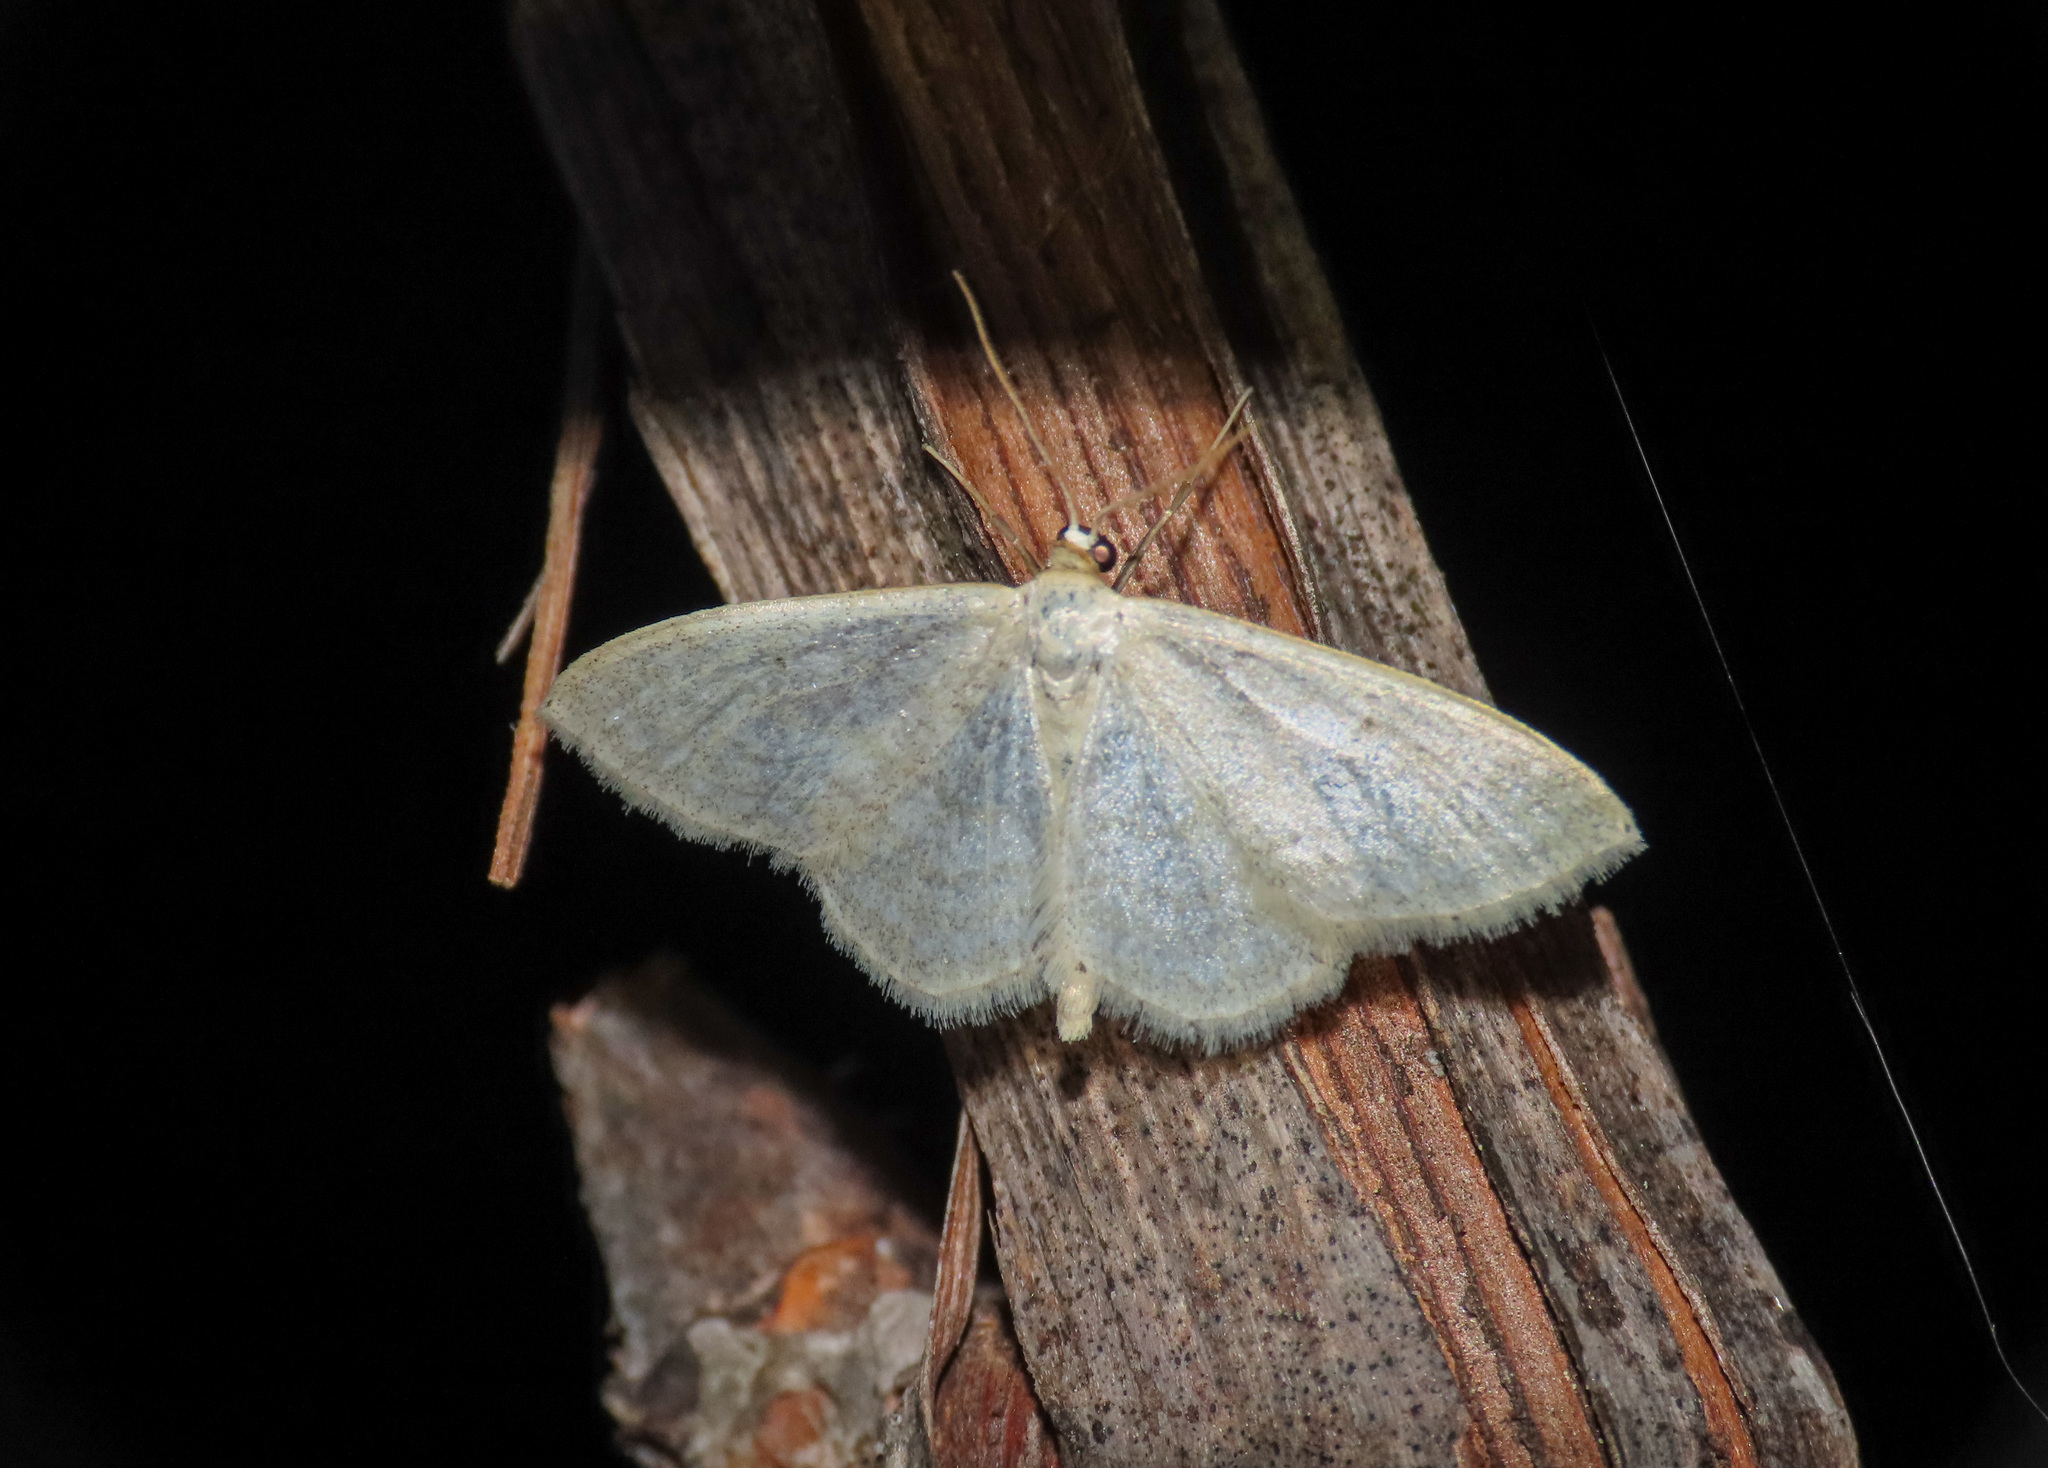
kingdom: Animalia
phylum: Arthropoda
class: Insecta
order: Lepidoptera
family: Geometridae
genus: Idaea
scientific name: Idaea subsericeata
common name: Satin wave
